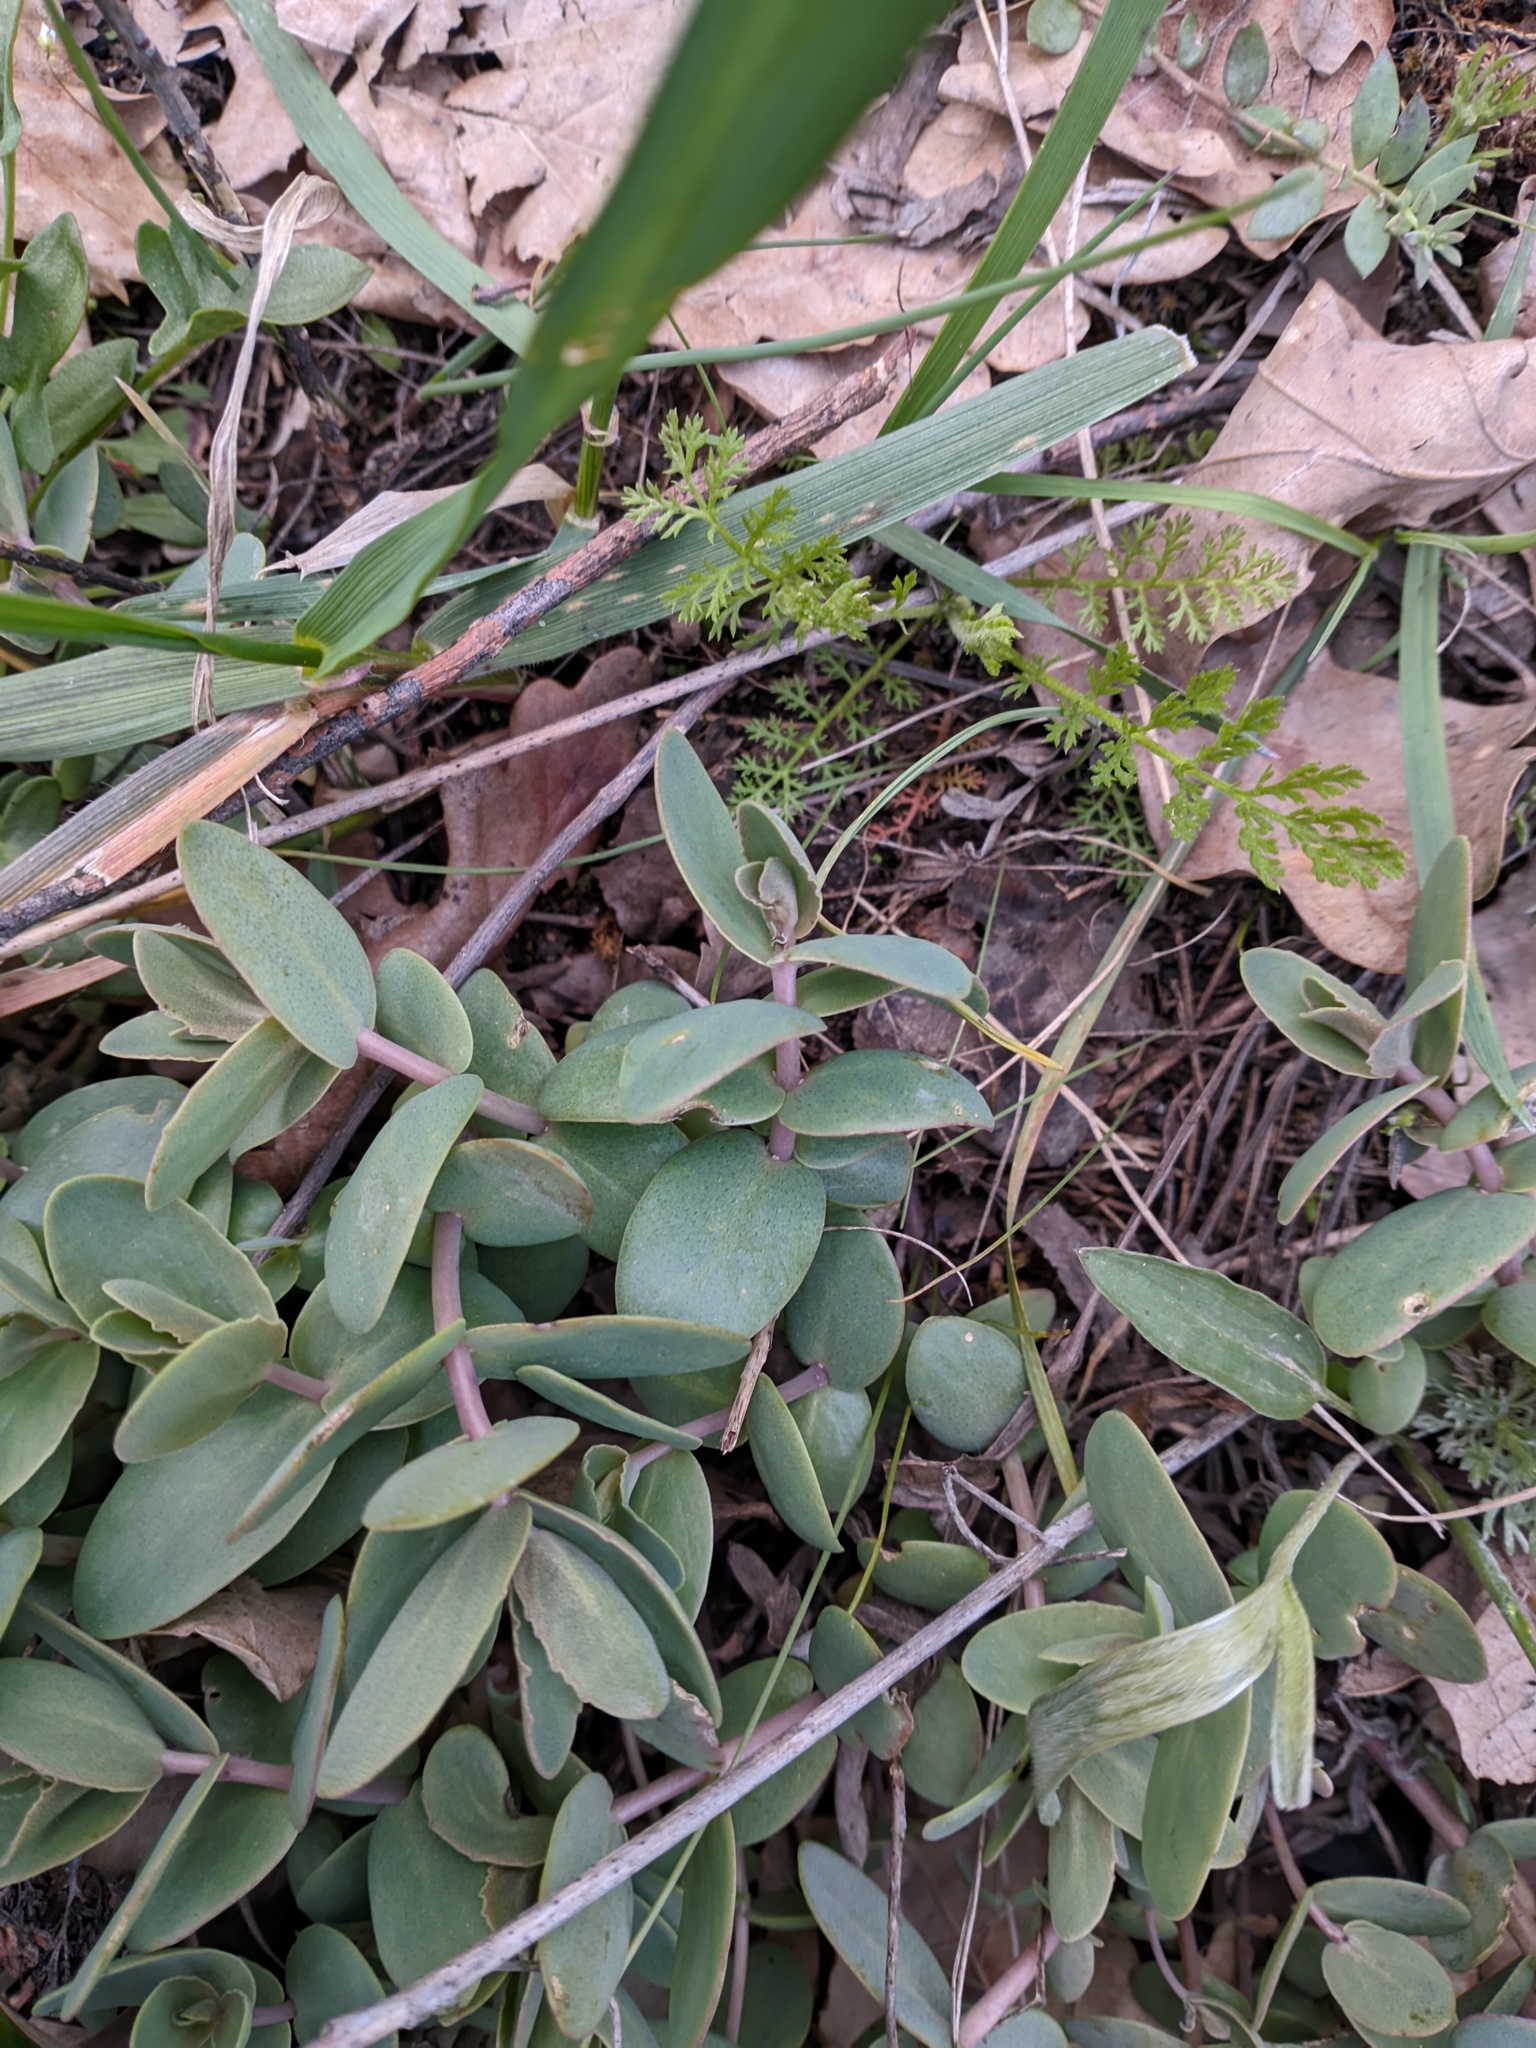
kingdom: Plantae
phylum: Tracheophyta
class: Magnoliopsida
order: Saxifragales
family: Crassulaceae
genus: Hylotelephium
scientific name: Hylotelephium maximum
